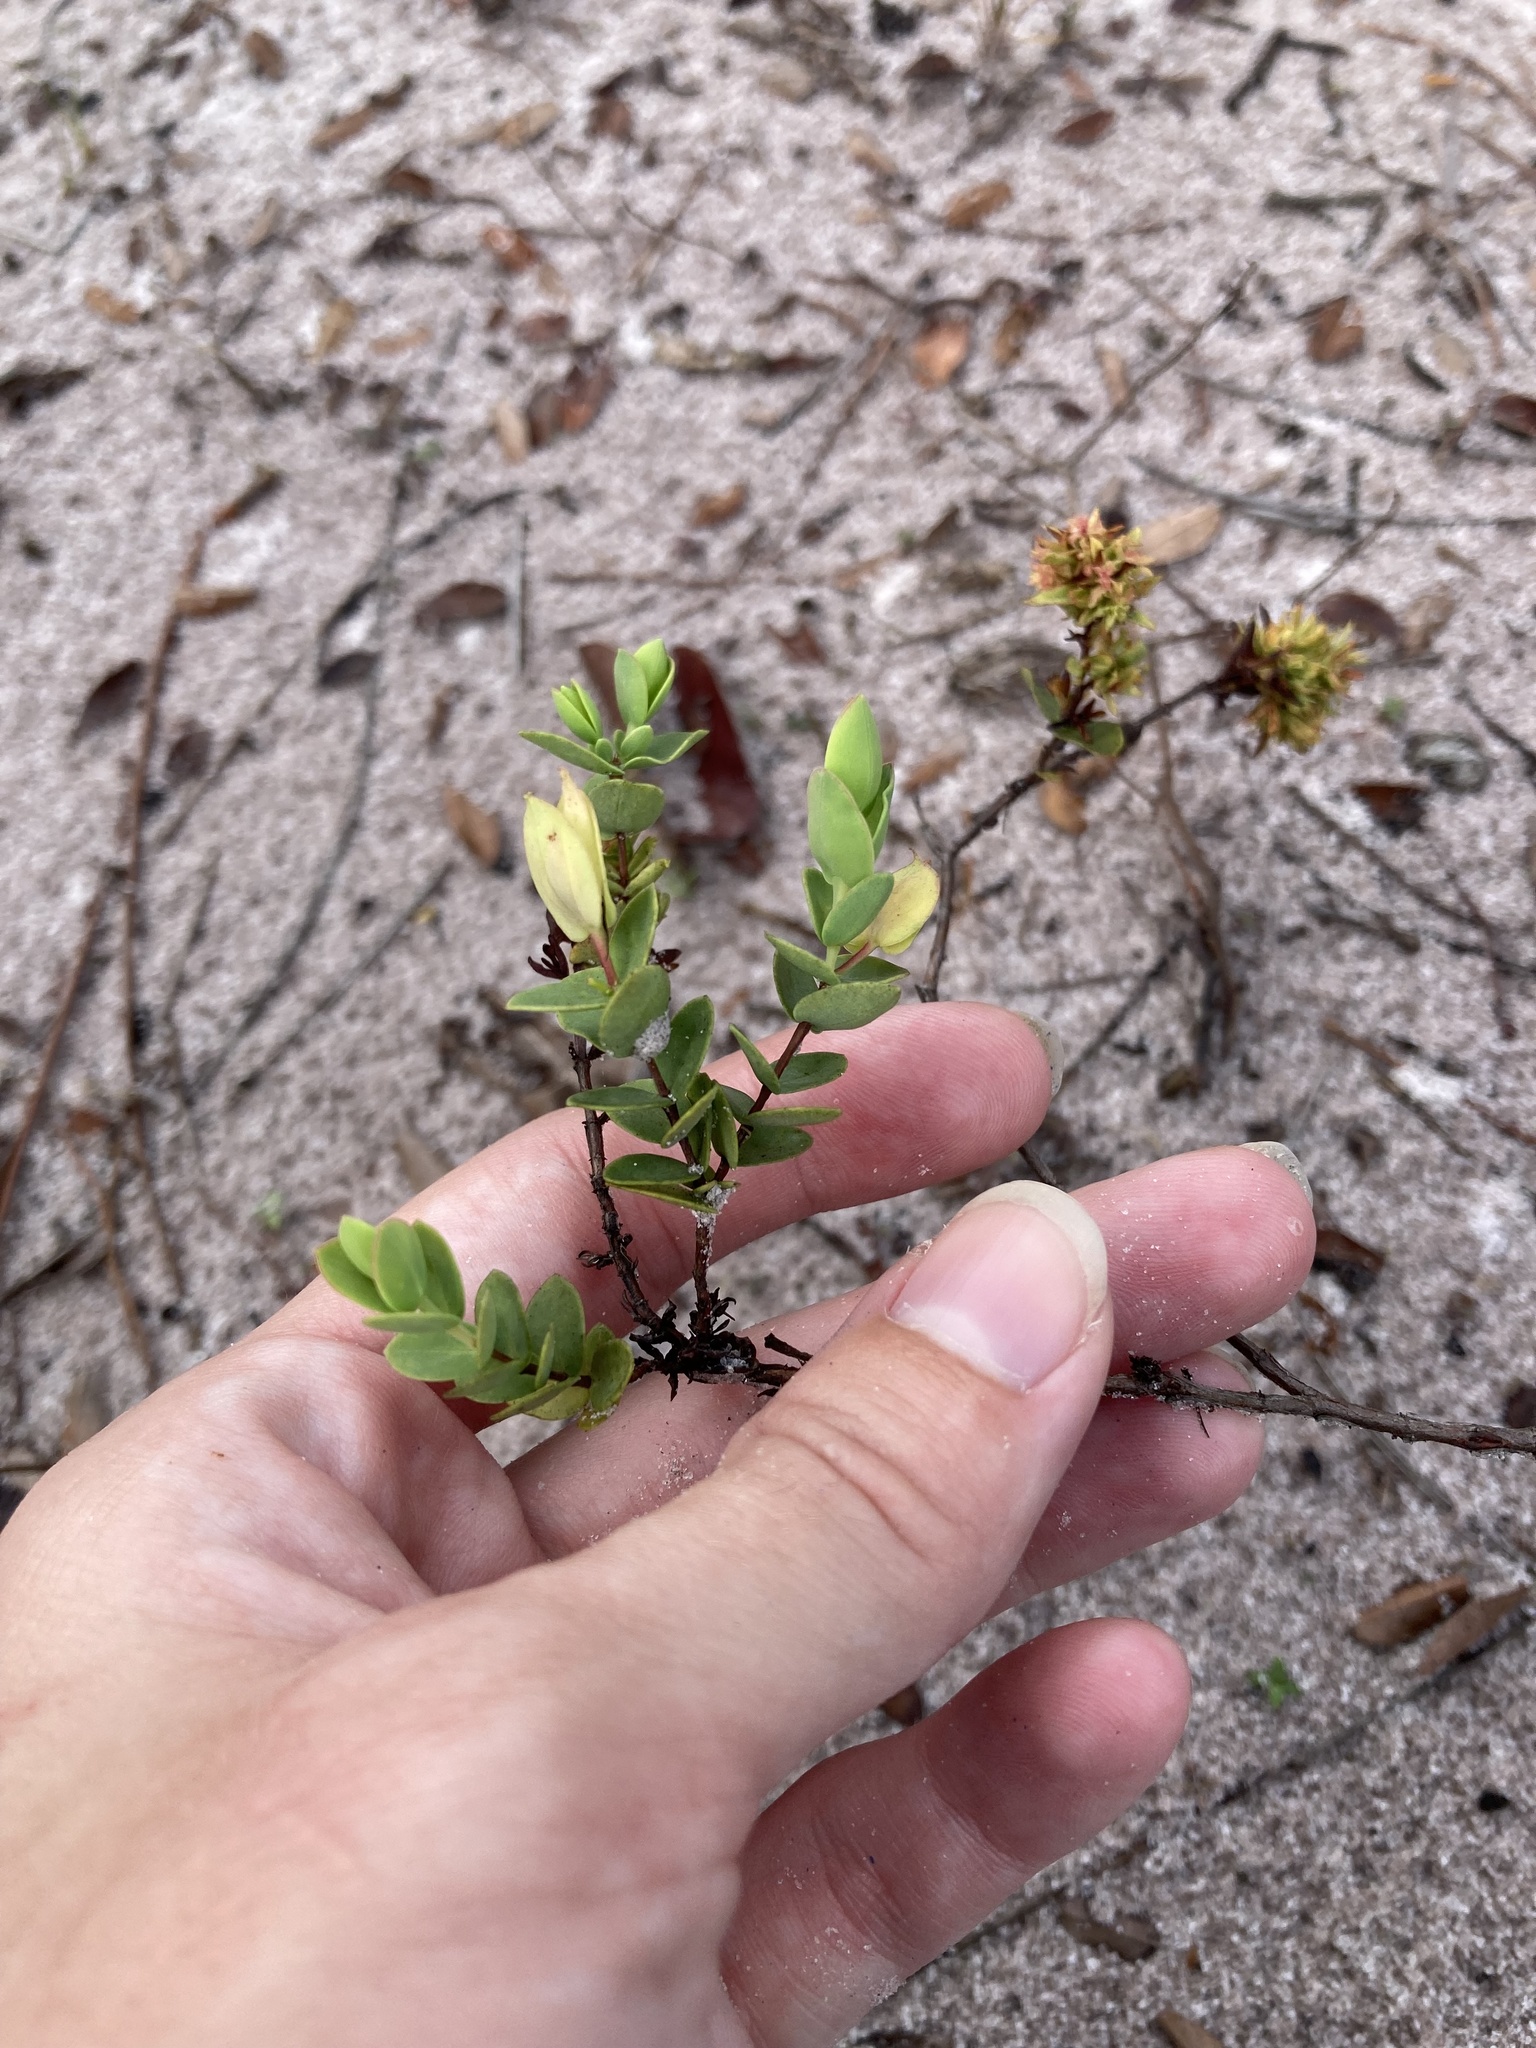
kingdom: Plantae
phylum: Tracheophyta
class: Magnoliopsida
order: Malpighiales
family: Hypericaceae
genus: Hypericum
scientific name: Hypericum tetrapetalum
